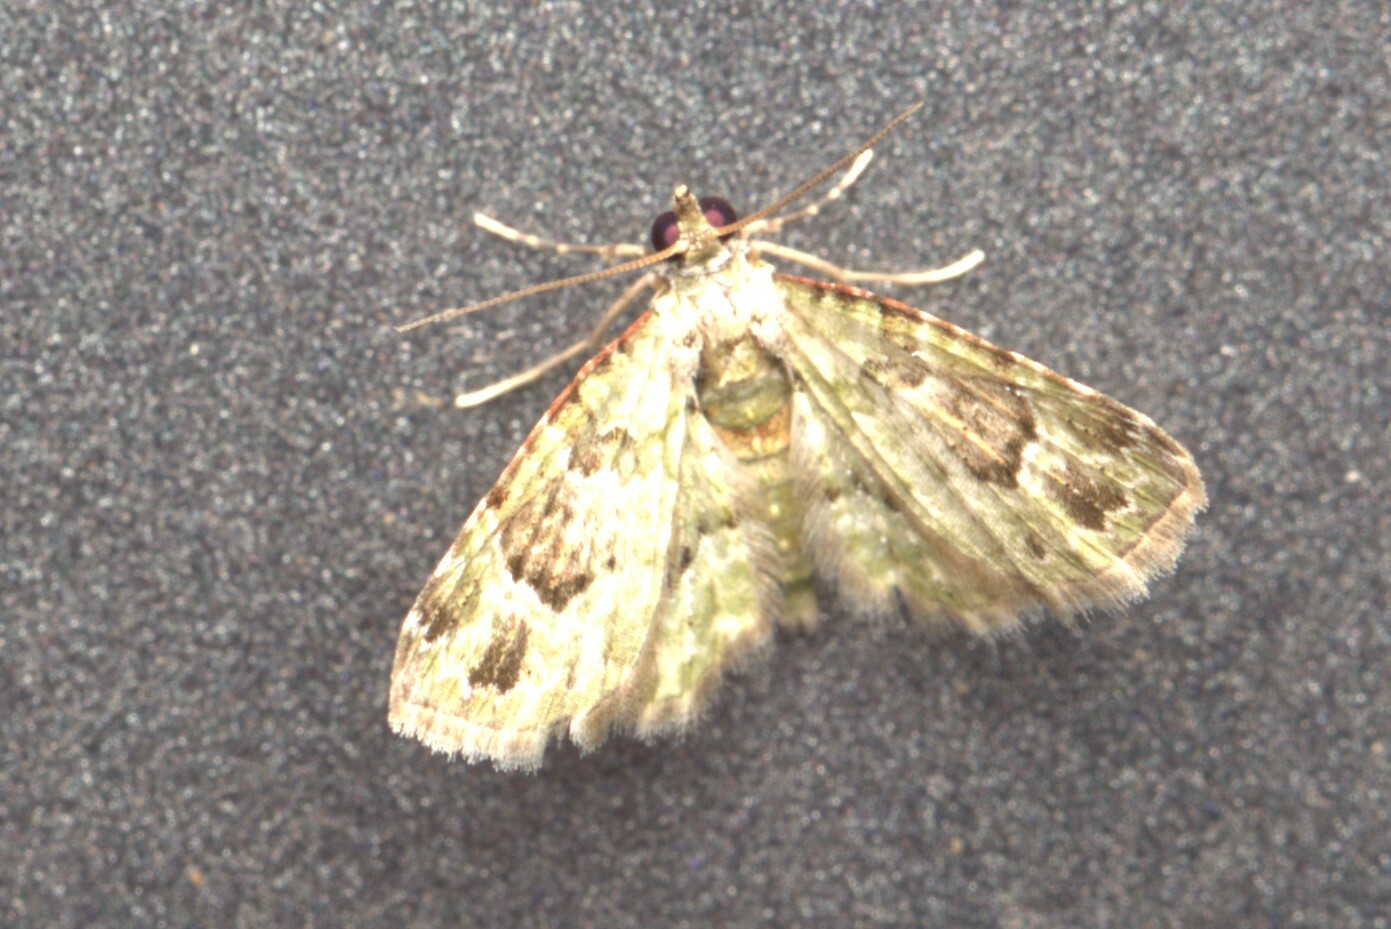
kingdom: Animalia
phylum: Arthropoda
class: Insecta
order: Lepidoptera
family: Geometridae
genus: Calluga
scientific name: Calluga costalis
